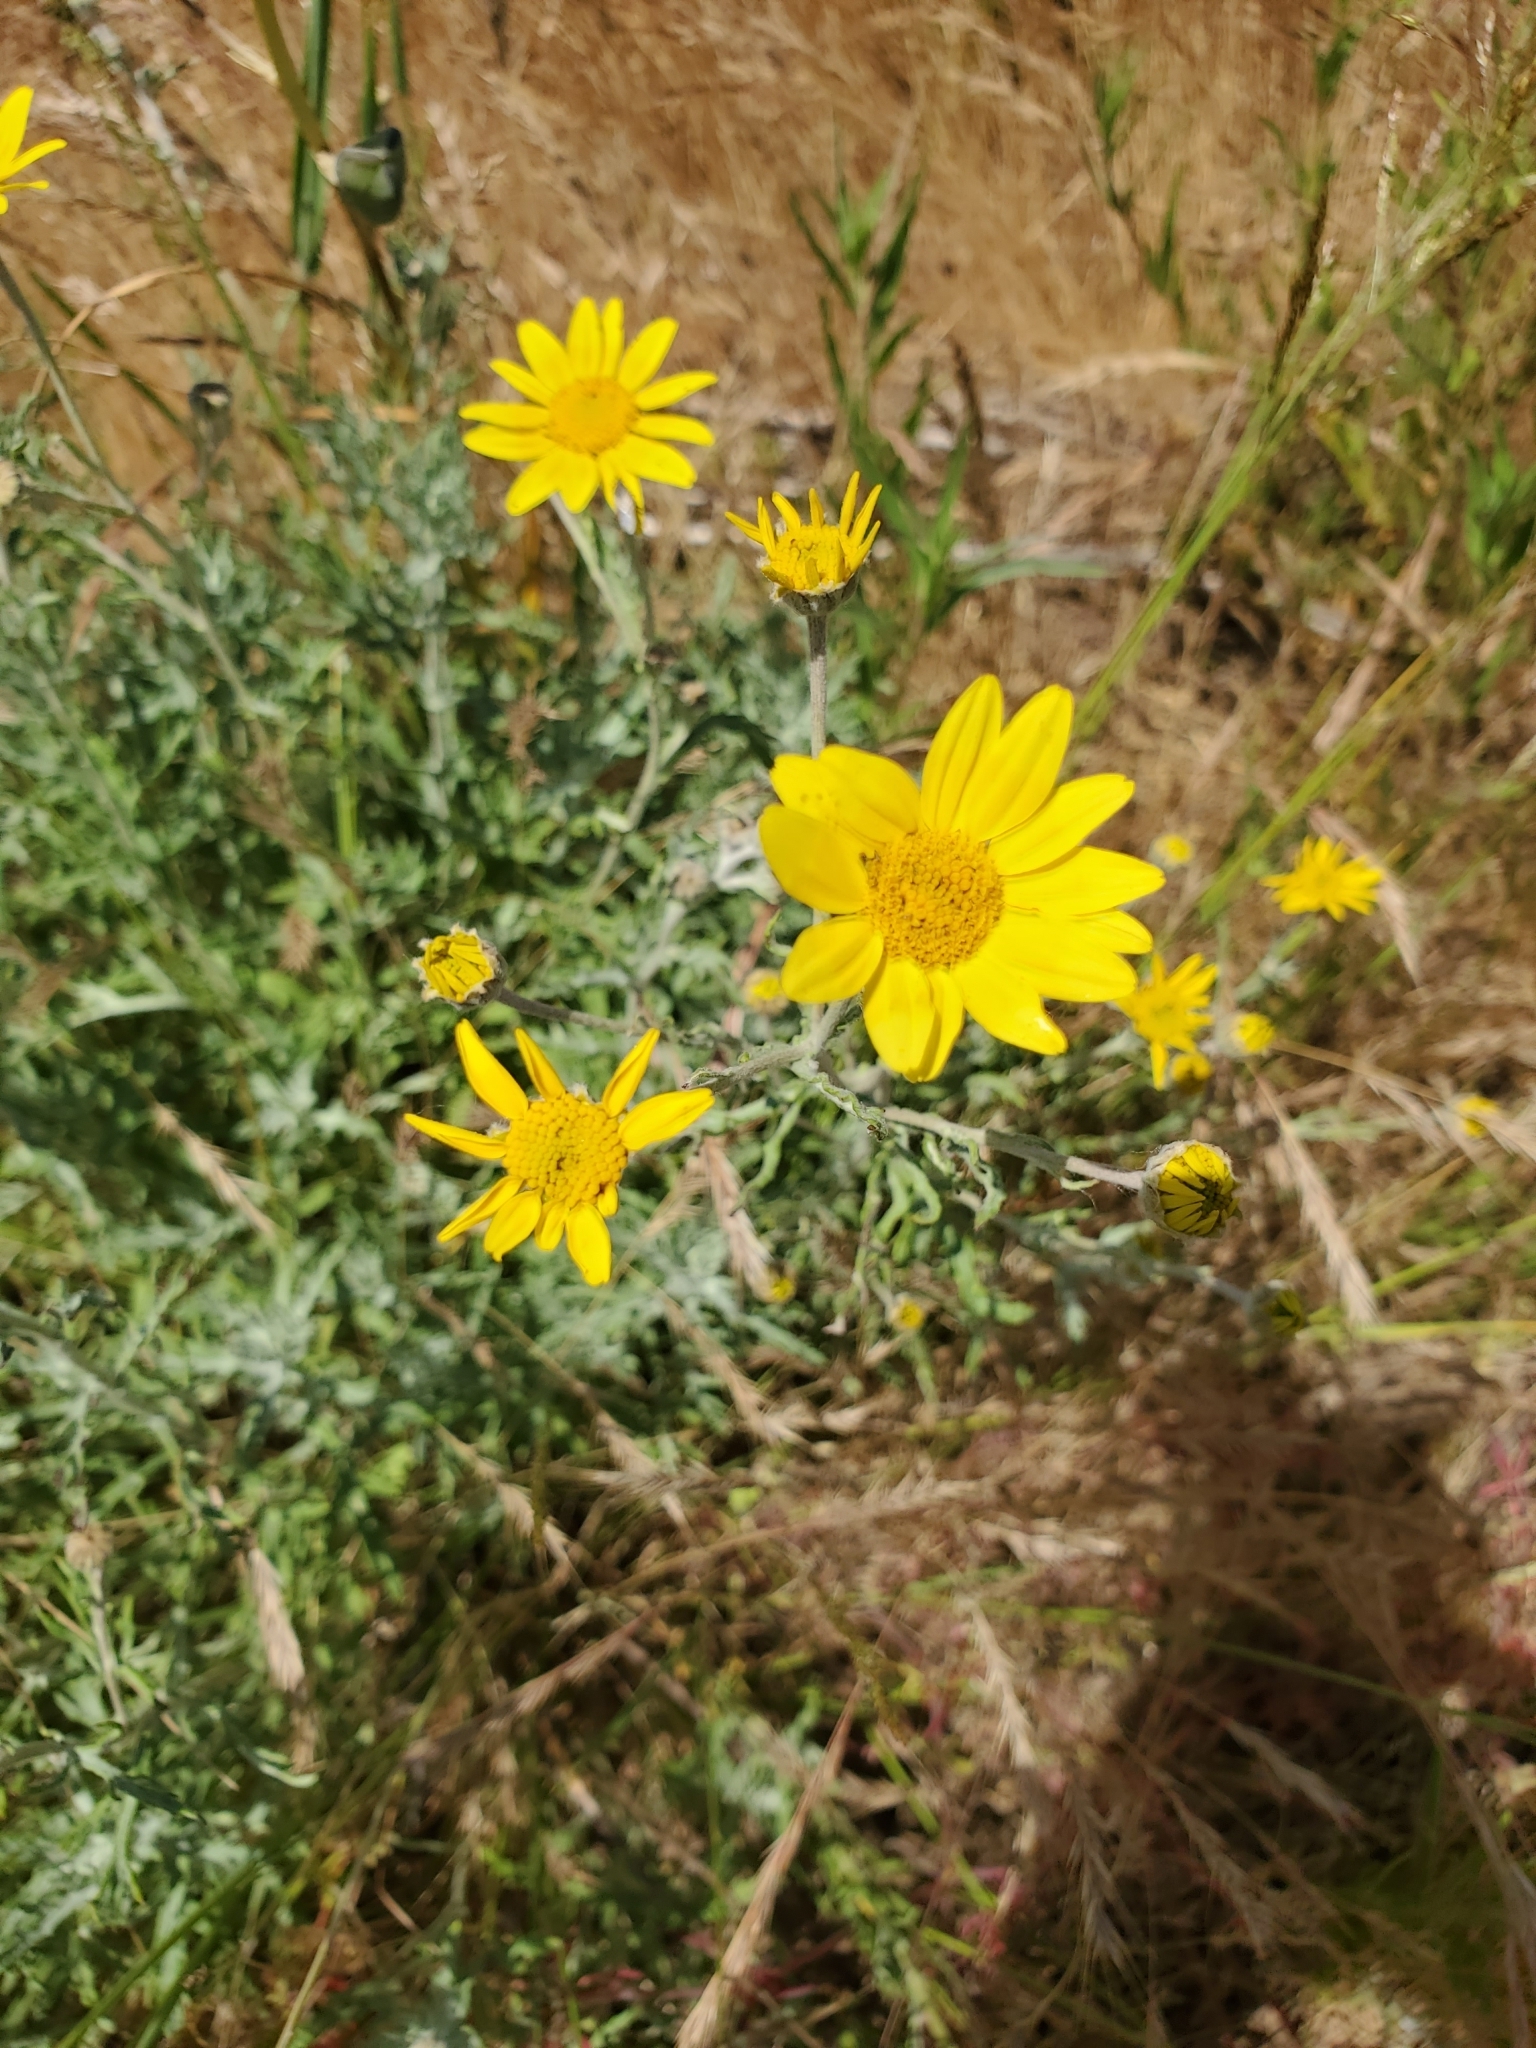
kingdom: Plantae
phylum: Tracheophyta
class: Magnoliopsida
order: Asterales
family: Asteraceae
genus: Eriophyllum
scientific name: Eriophyllum lanatum
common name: Common woolly-sunflower
